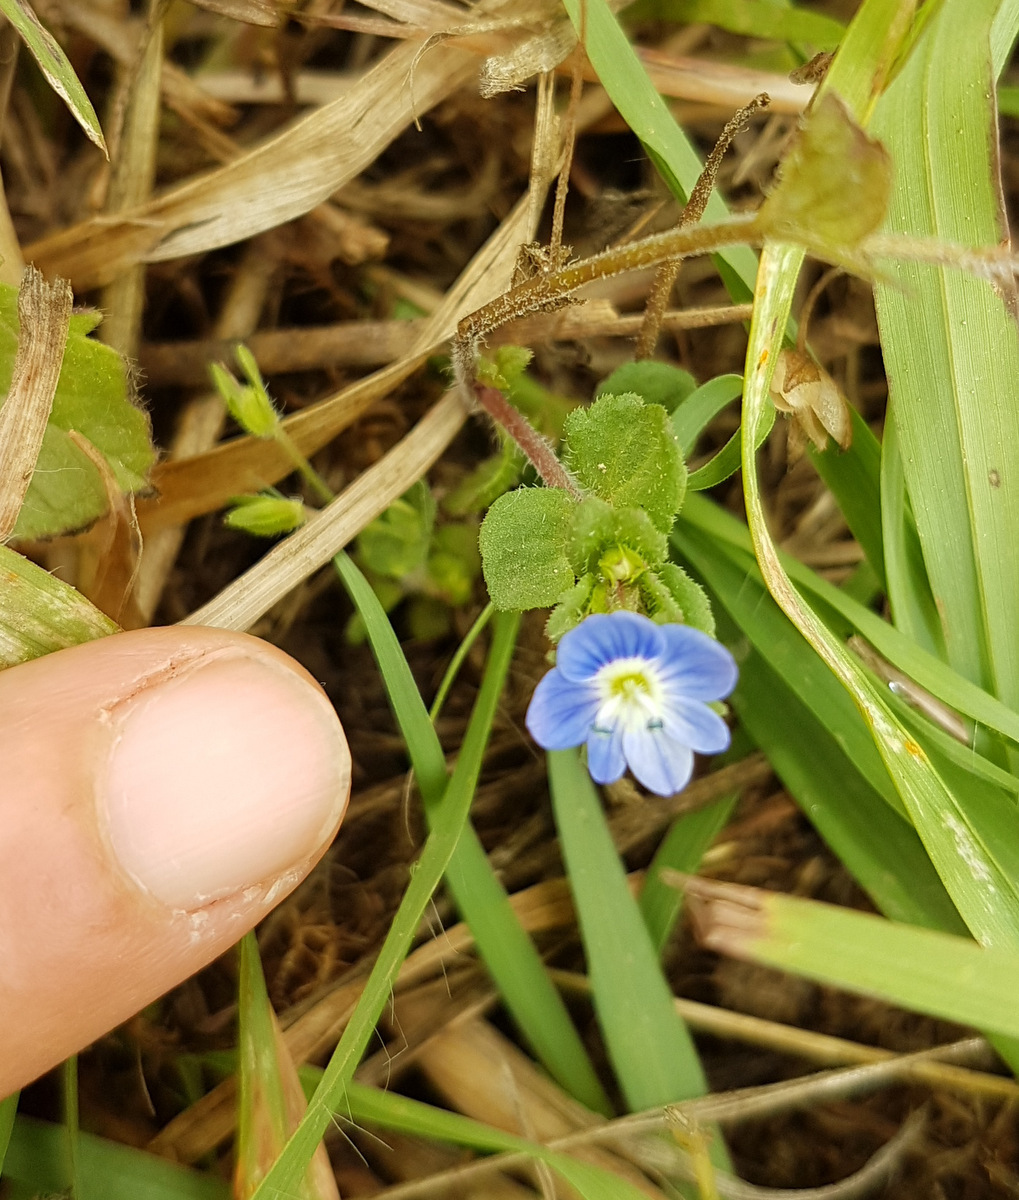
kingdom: Plantae
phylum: Tracheophyta
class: Magnoliopsida
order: Lamiales
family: Plantaginaceae
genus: Veronica
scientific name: Veronica persica
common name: Common field-speedwell
